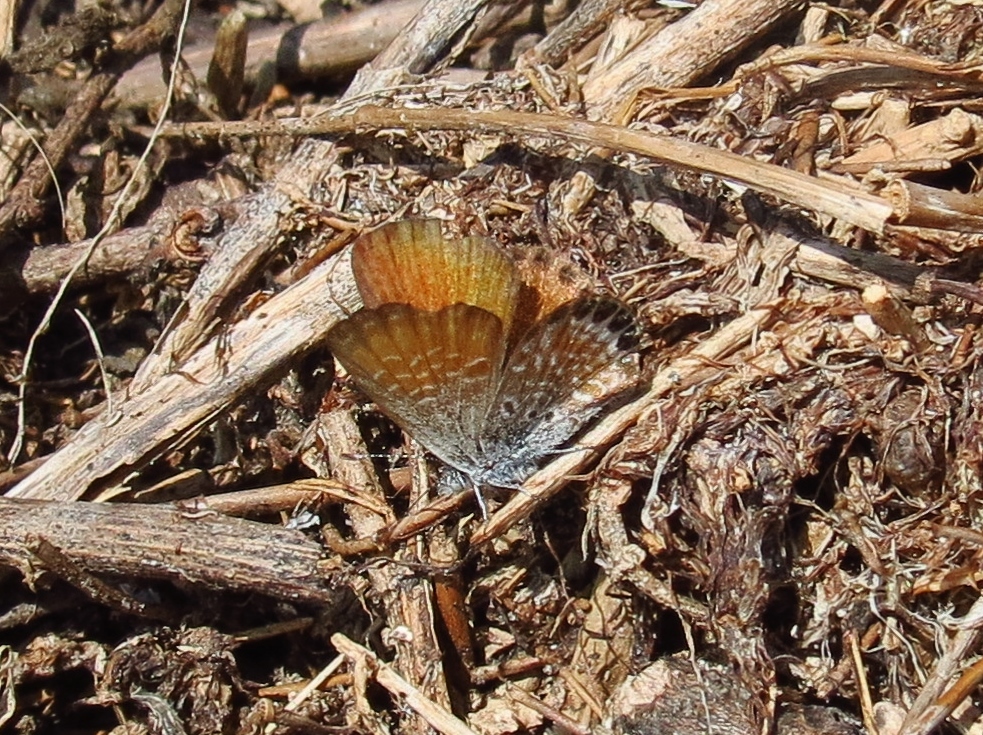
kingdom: Animalia
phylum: Arthropoda
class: Insecta
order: Lepidoptera
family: Lycaenidae
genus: Brephidium
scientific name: Brephidium exilis
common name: Pygmy blue
